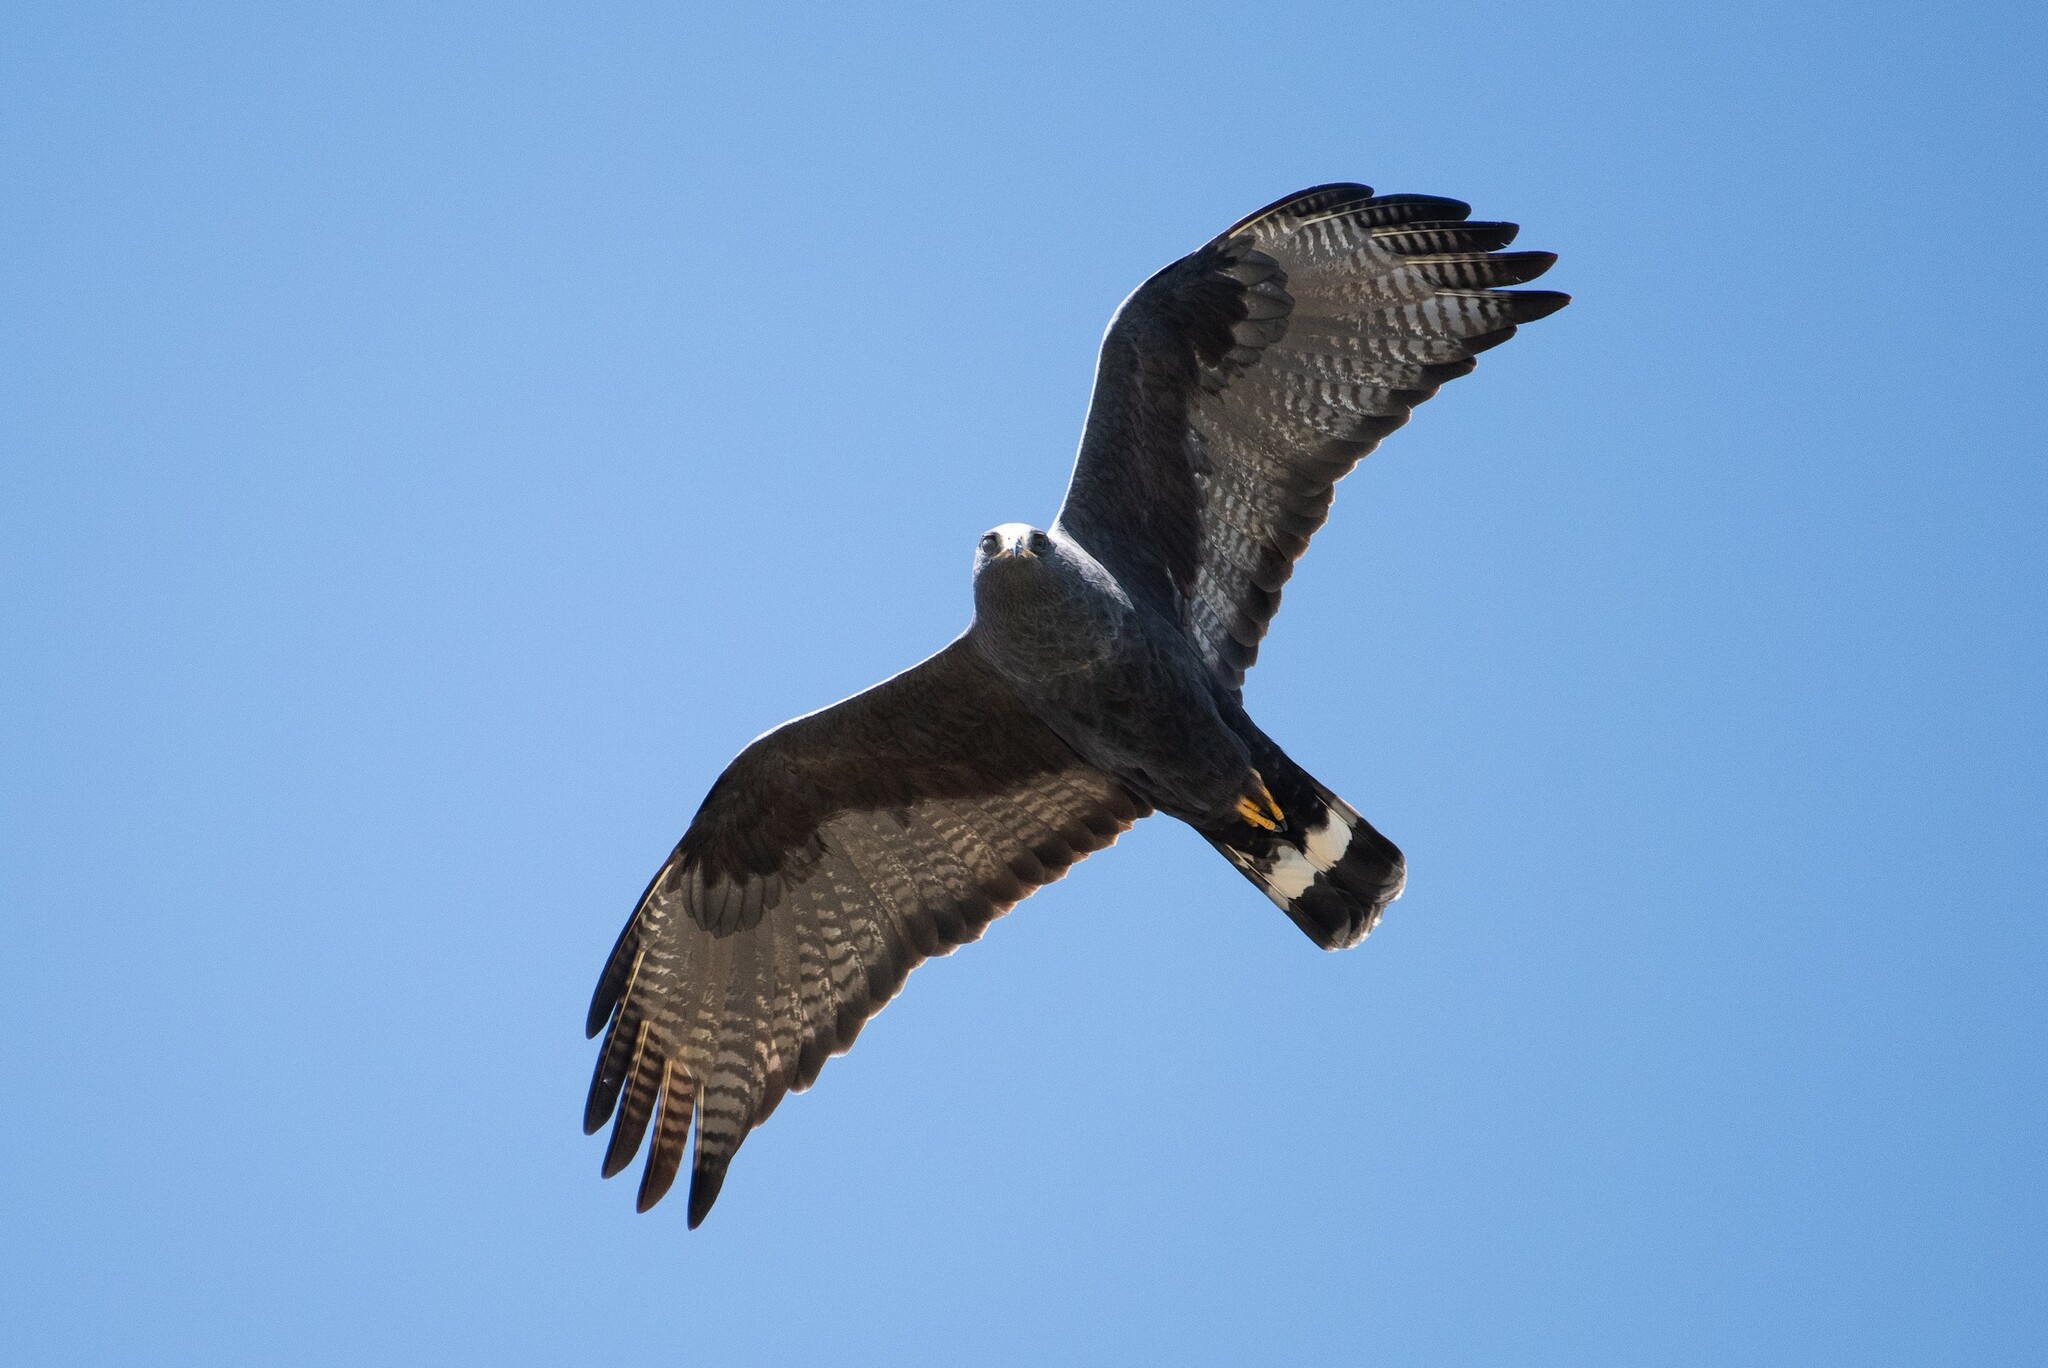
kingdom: Animalia
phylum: Chordata
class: Aves
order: Accipitriformes
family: Accipitridae
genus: Buteo
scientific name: Buteo albonotatus
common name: Zone-tailed hawk
